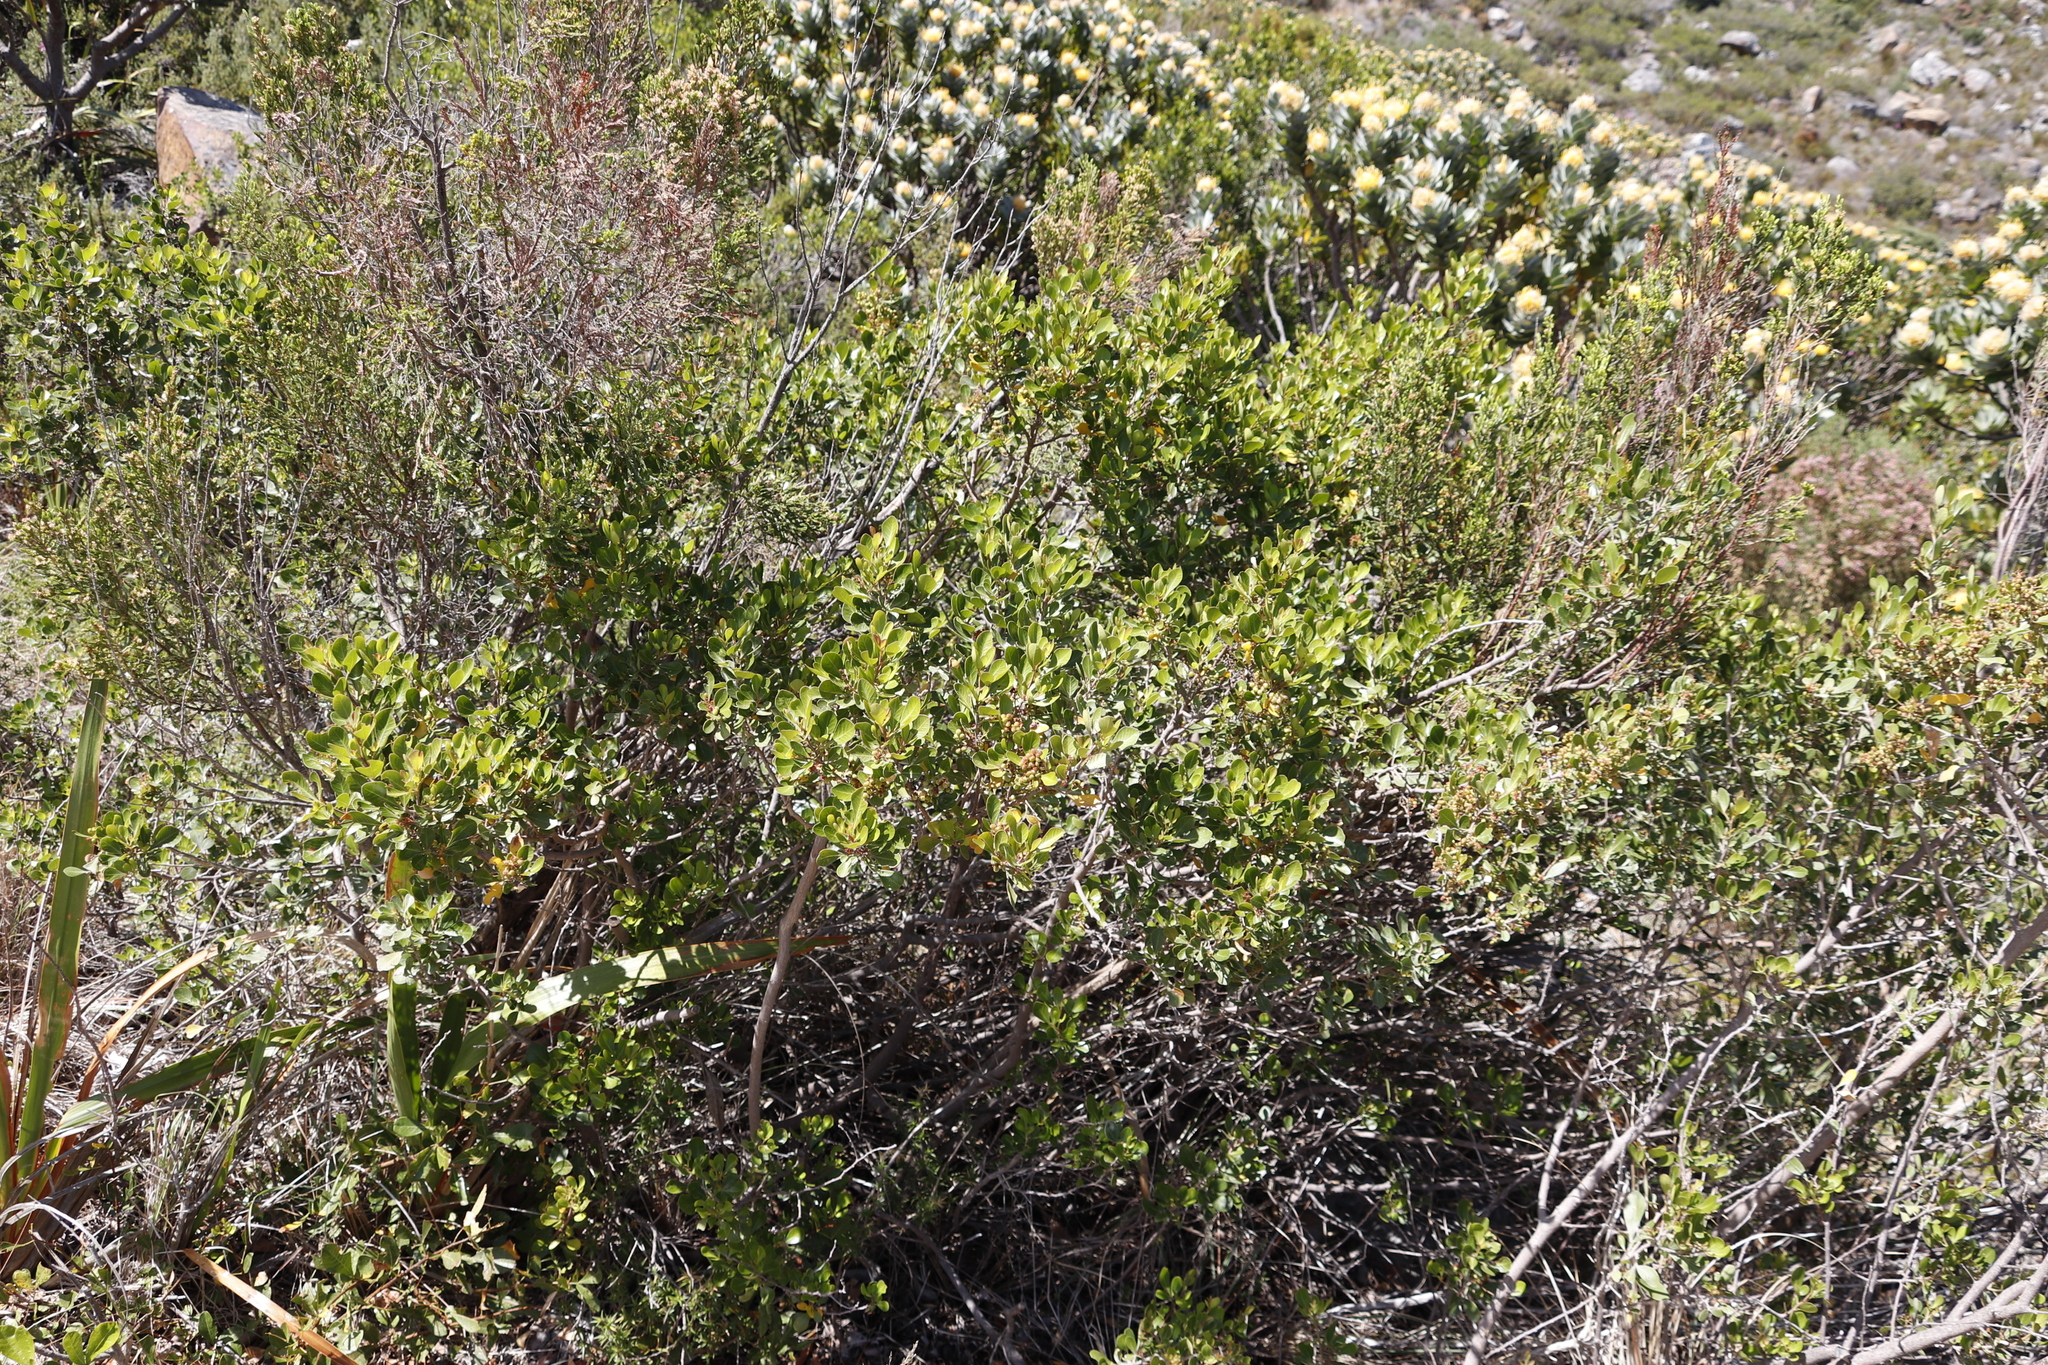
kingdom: Plantae
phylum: Tracheophyta
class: Magnoliopsida
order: Sapindales
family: Anacardiaceae
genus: Searsia
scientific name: Searsia lucida
